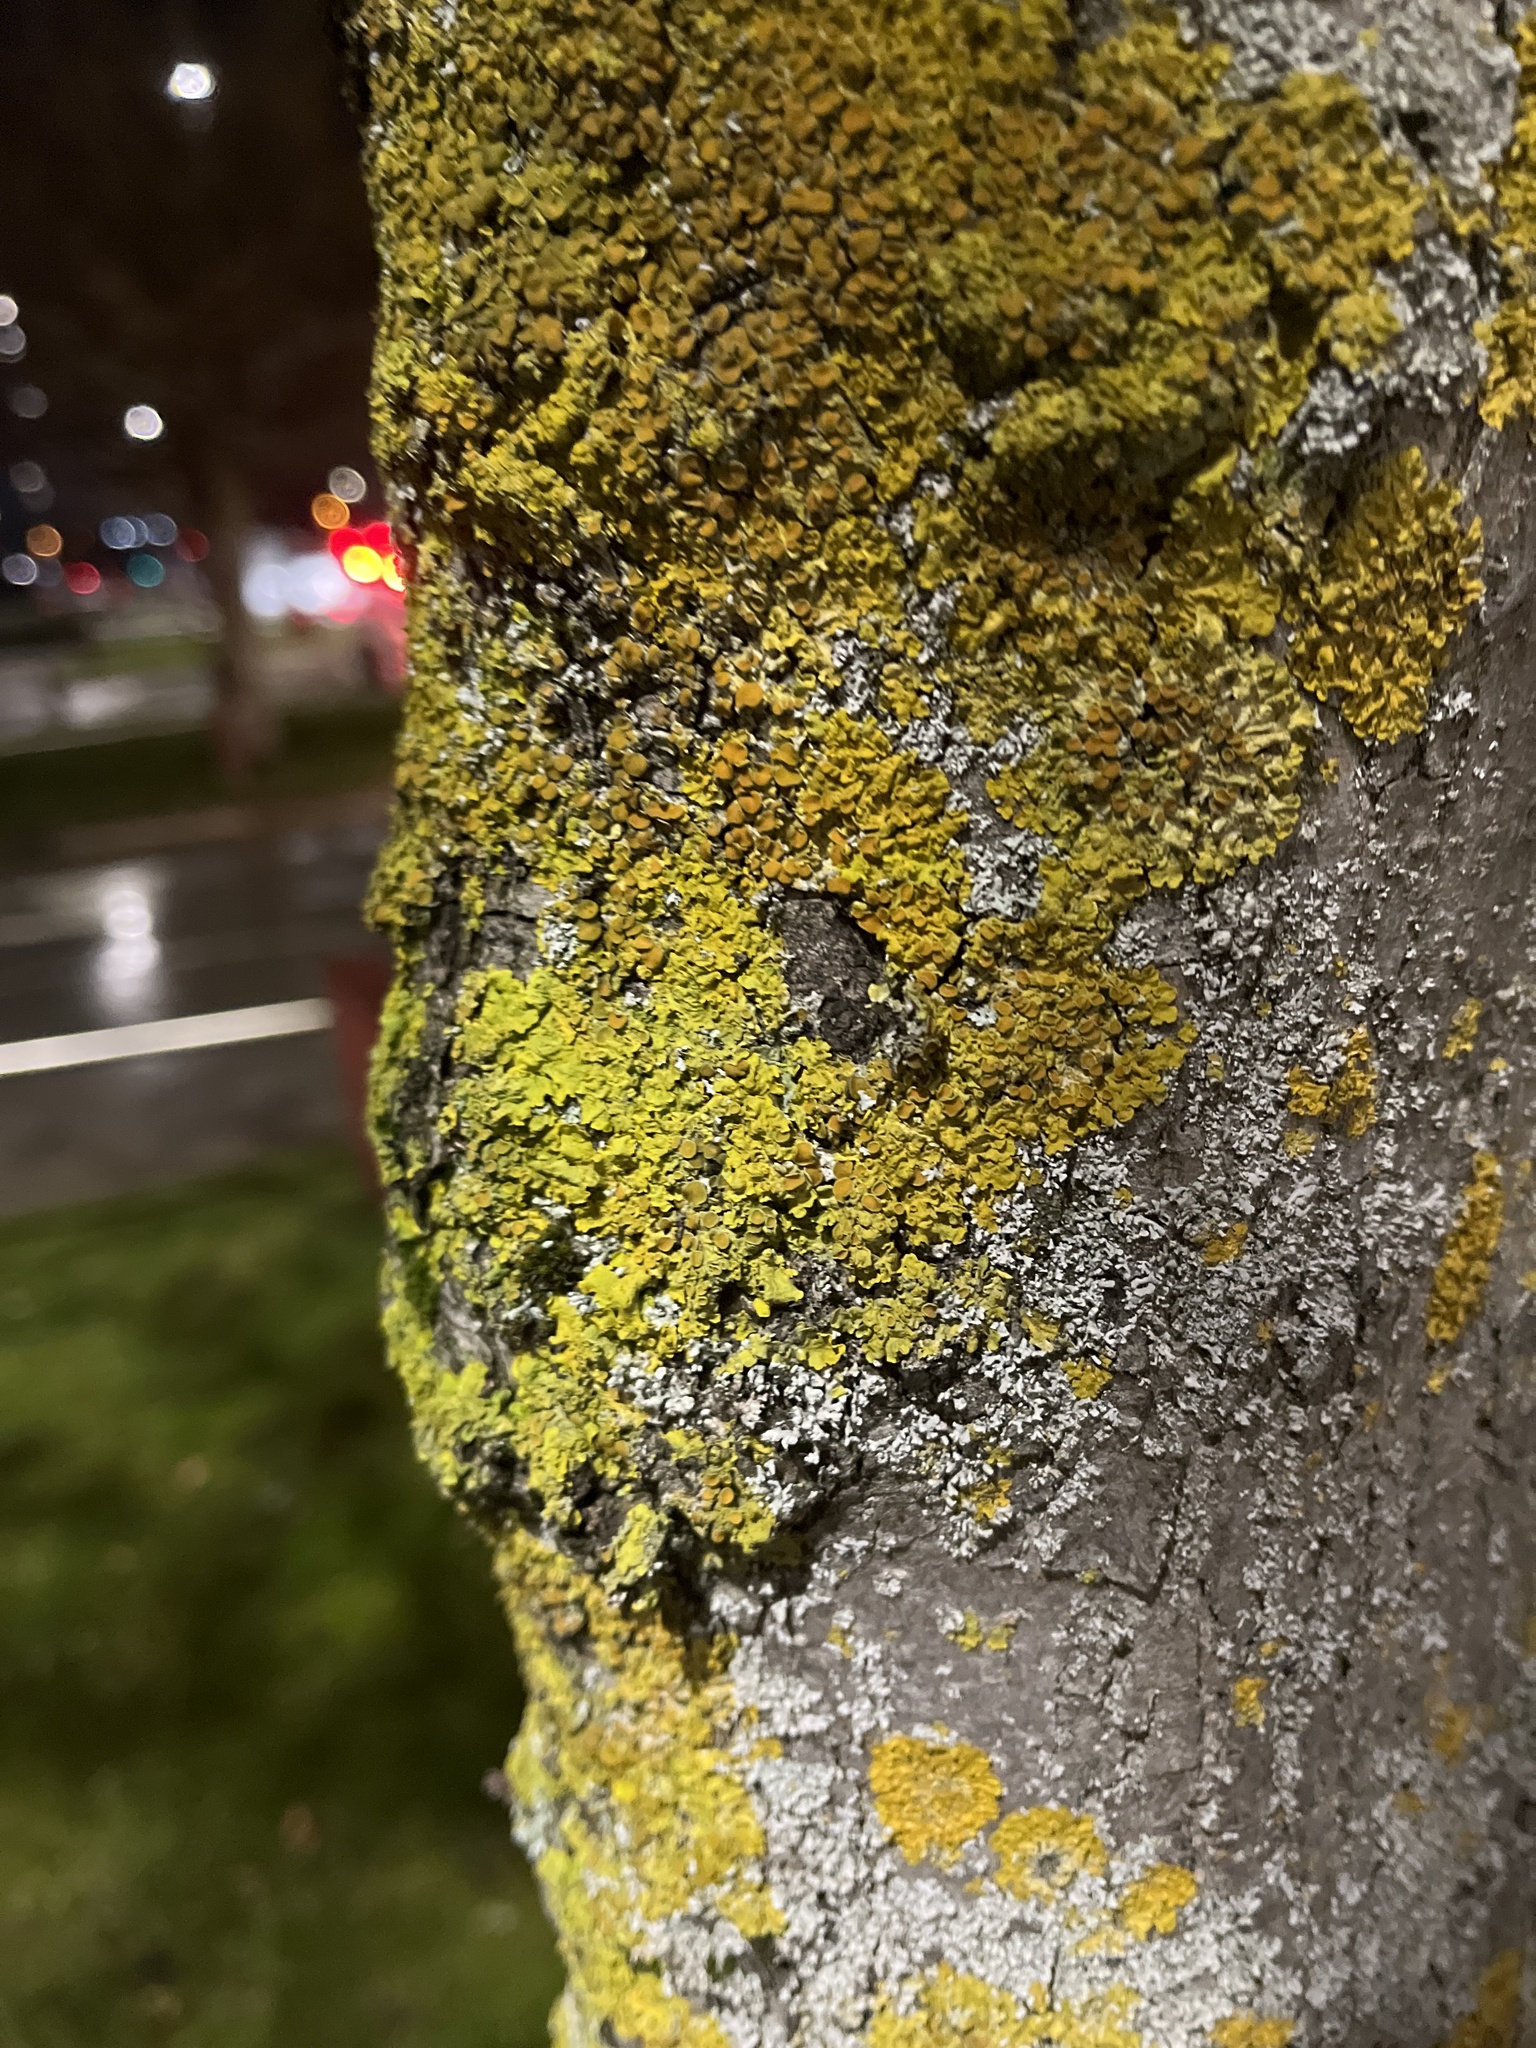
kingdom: Fungi
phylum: Ascomycota
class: Lecanoromycetes
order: Teloschistales
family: Teloschistaceae
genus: Xanthoria
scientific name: Xanthoria parietina
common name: Common orange lichen
